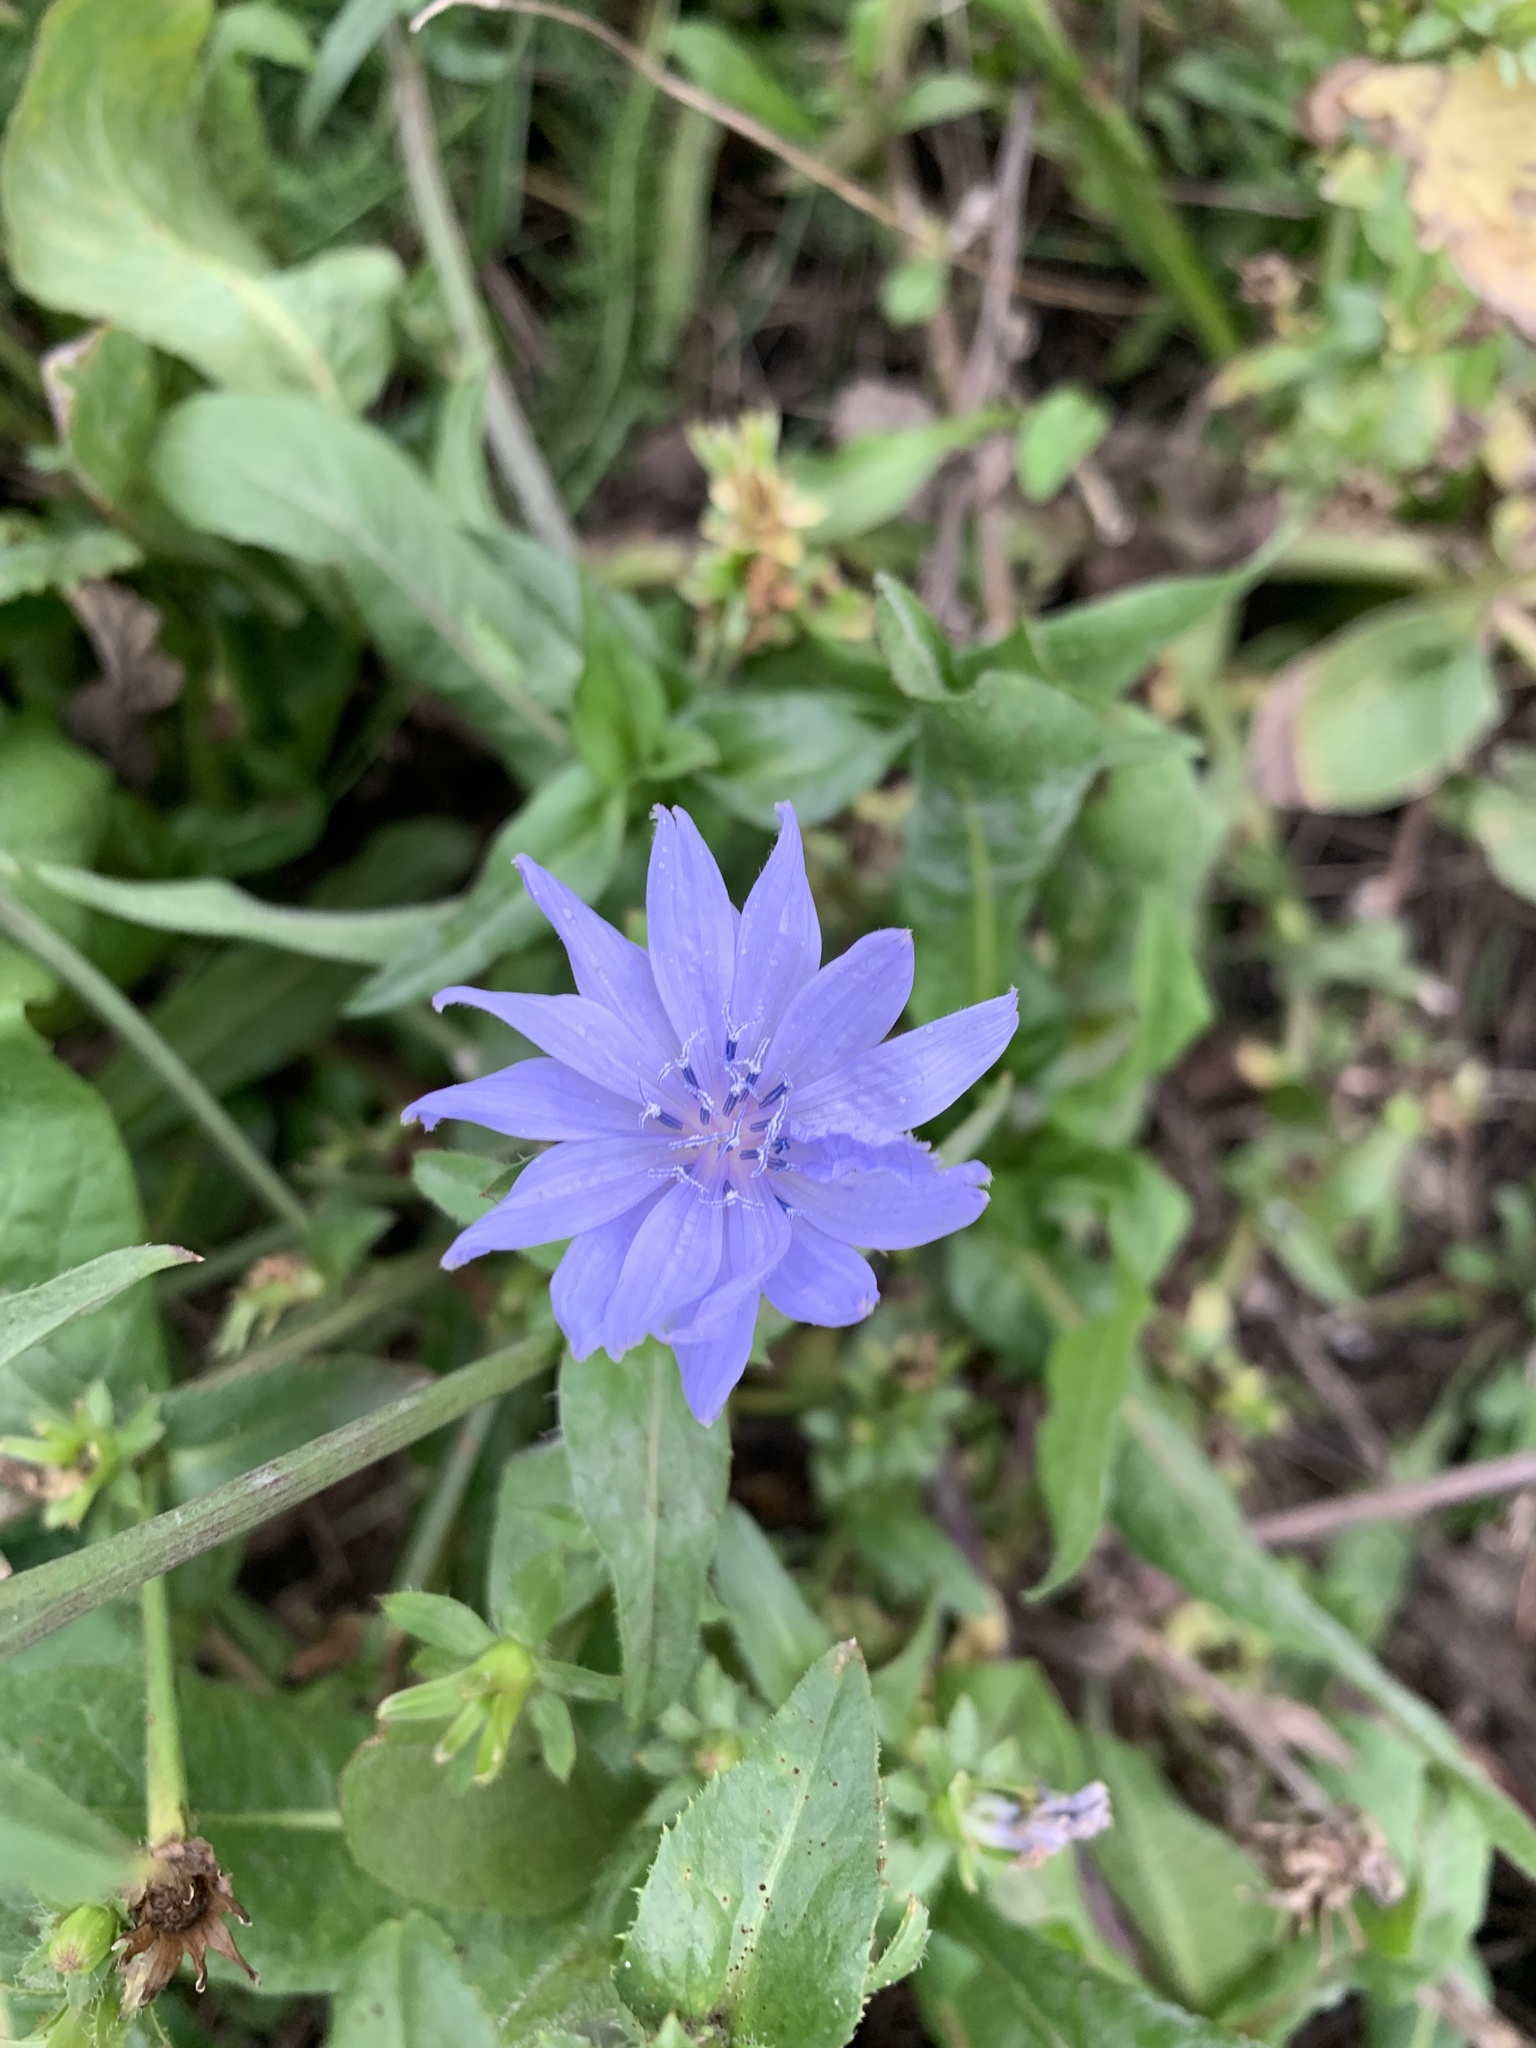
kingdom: Plantae
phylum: Tracheophyta
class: Magnoliopsida
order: Asterales
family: Asteraceae
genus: Cichorium
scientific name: Cichorium intybus
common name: Chicory
